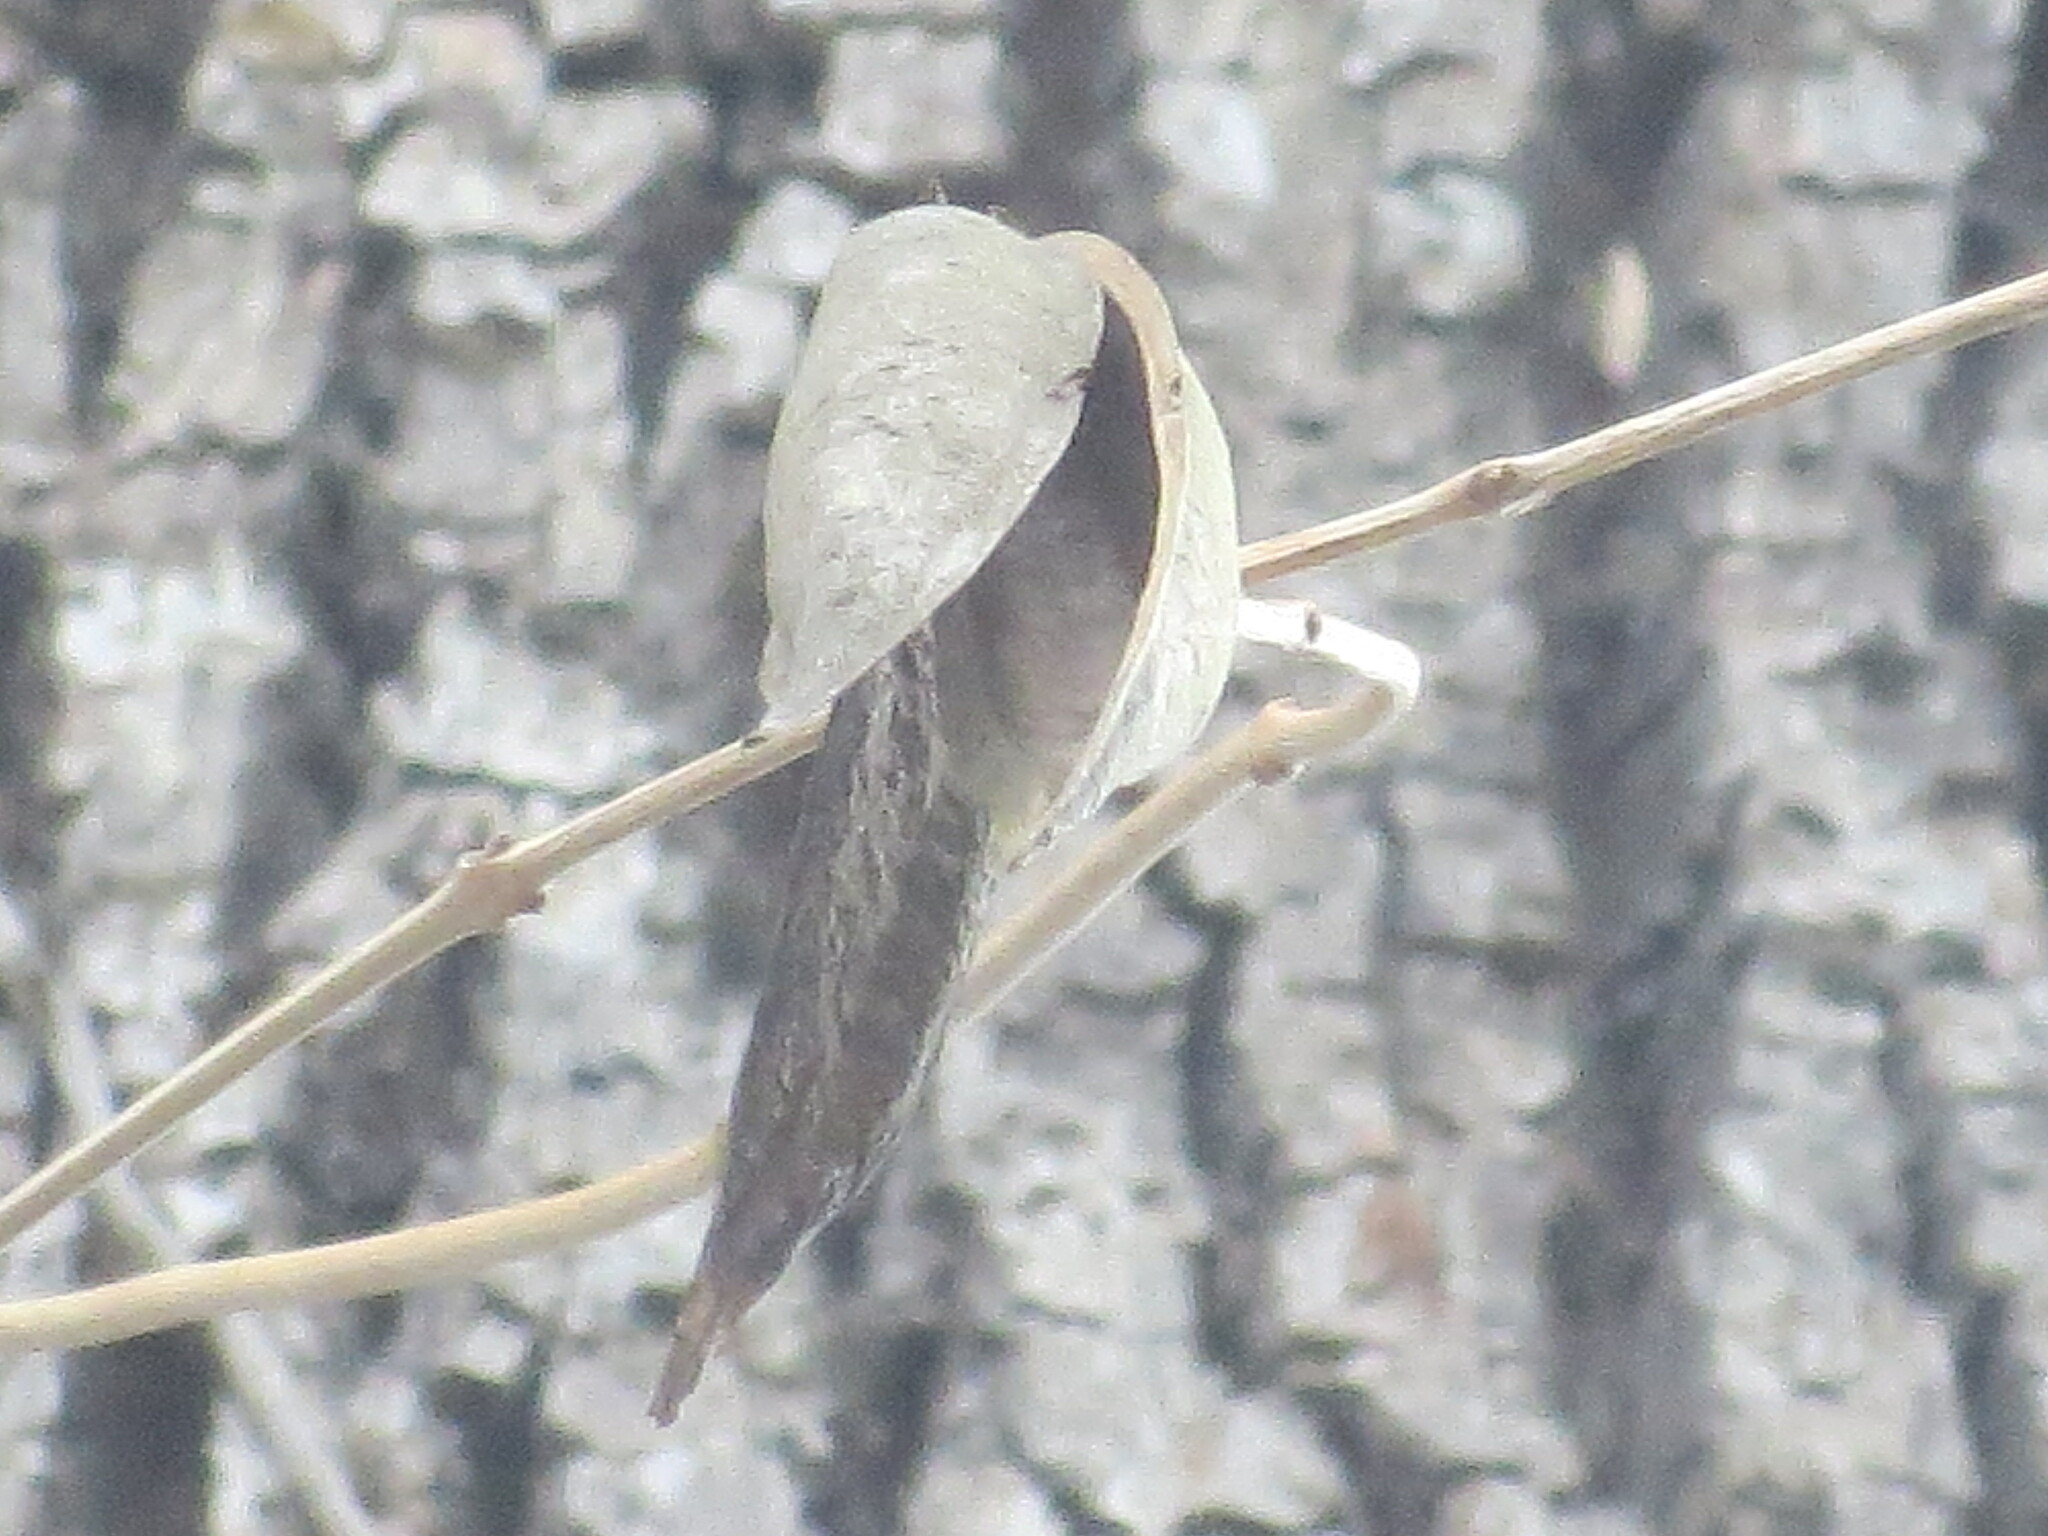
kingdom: Plantae
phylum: Tracheophyta
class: Magnoliopsida
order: Lamiales
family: Bignoniaceae
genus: Campsis
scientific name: Campsis radicans
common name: Trumpet-creeper
